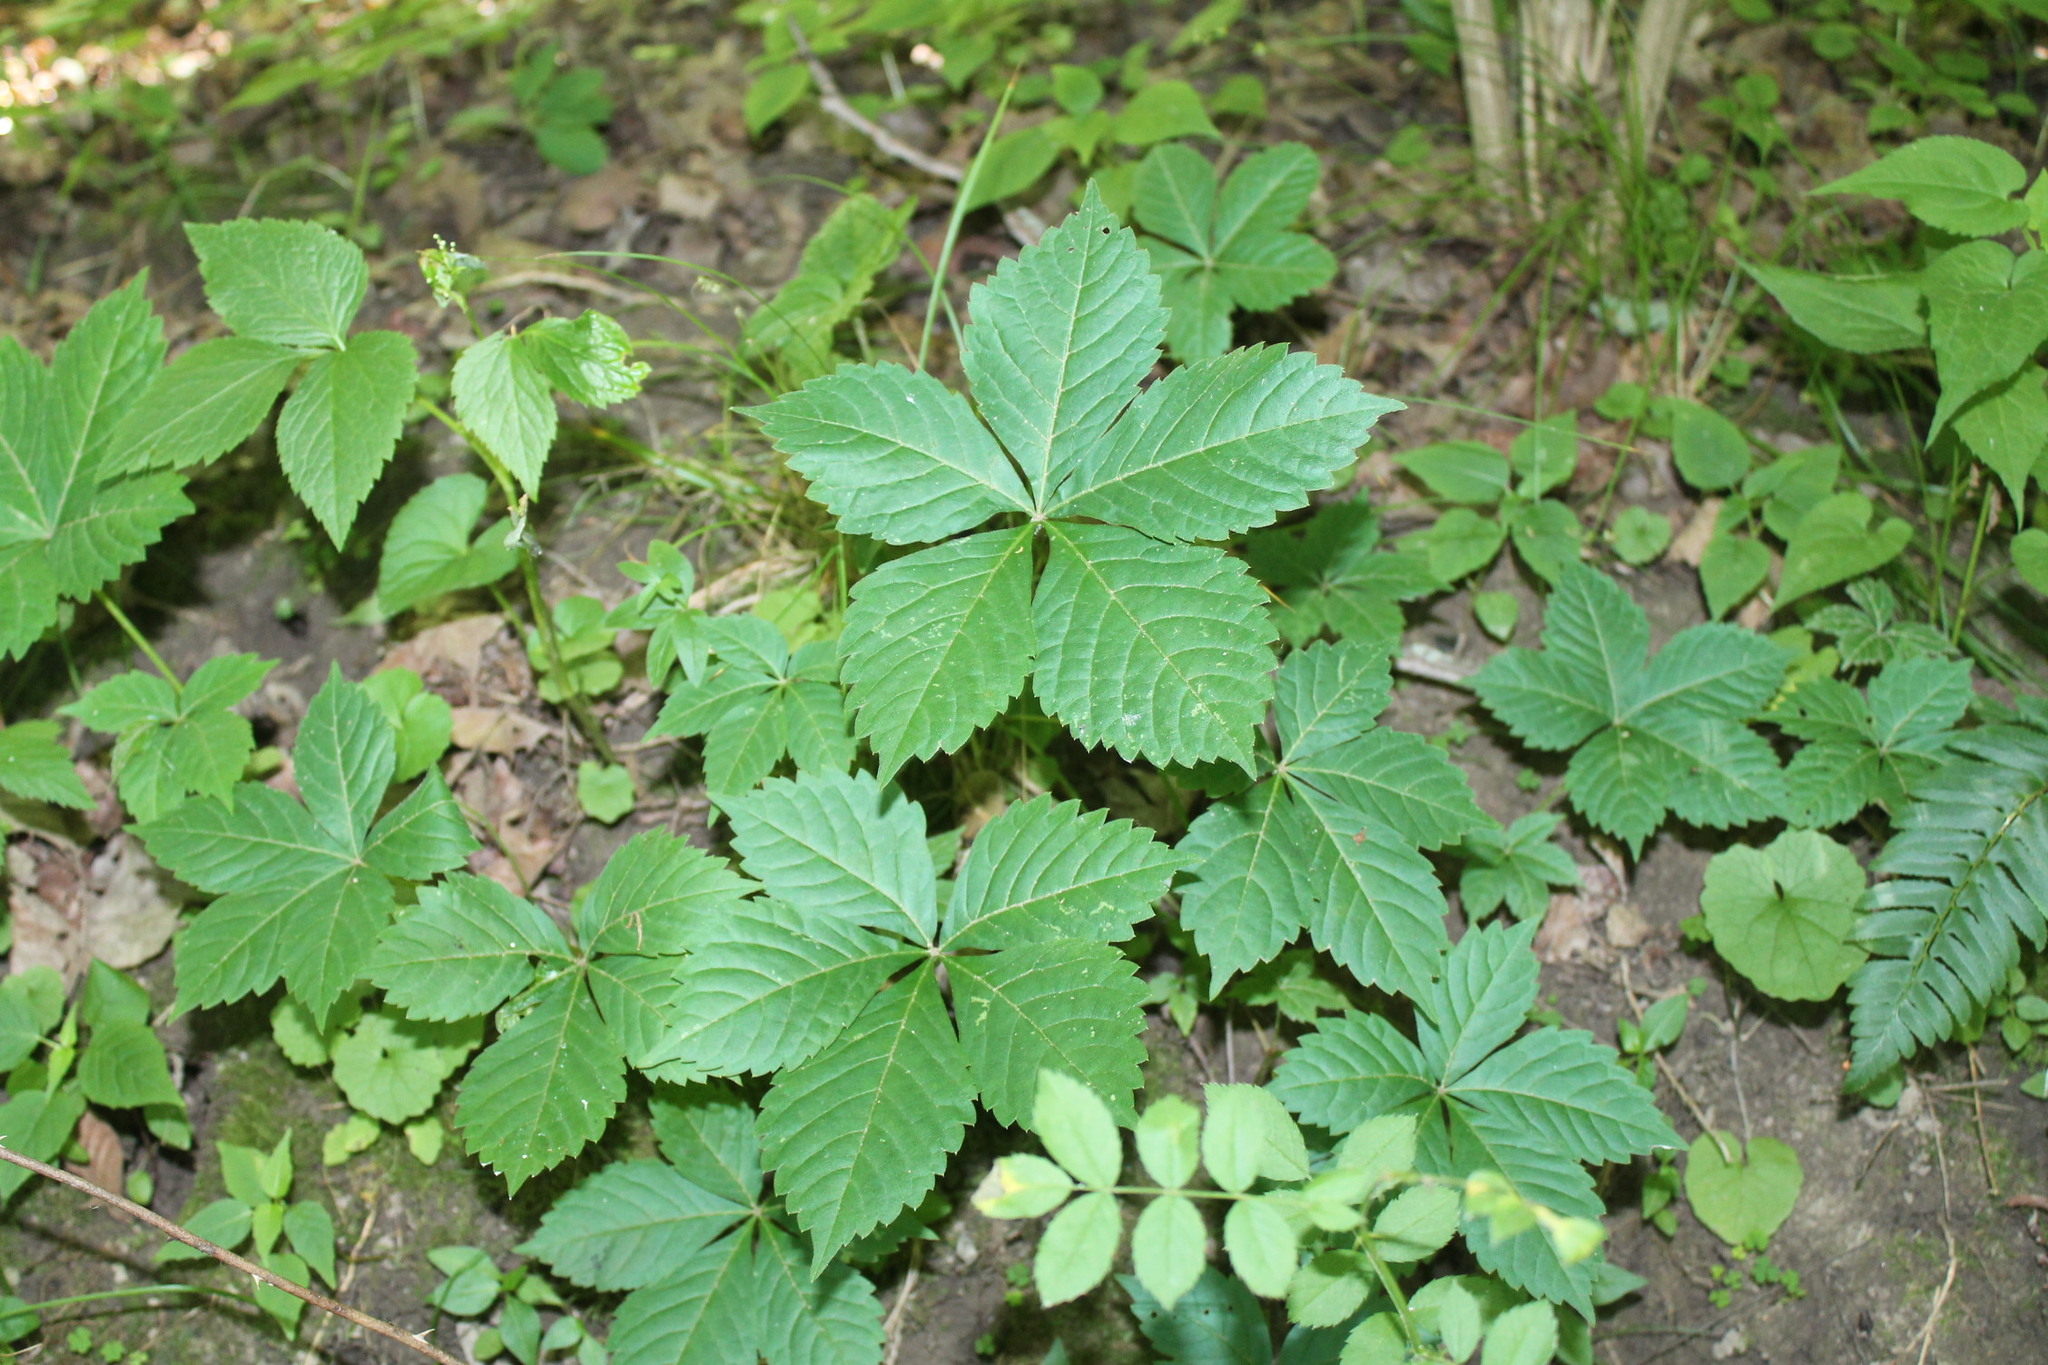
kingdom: Plantae
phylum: Tracheophyta
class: Magnoliopsida
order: Vitales
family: Vitaceae
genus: Parthenocissus
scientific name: Parthenocissus inserta
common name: False virginia-creeper
